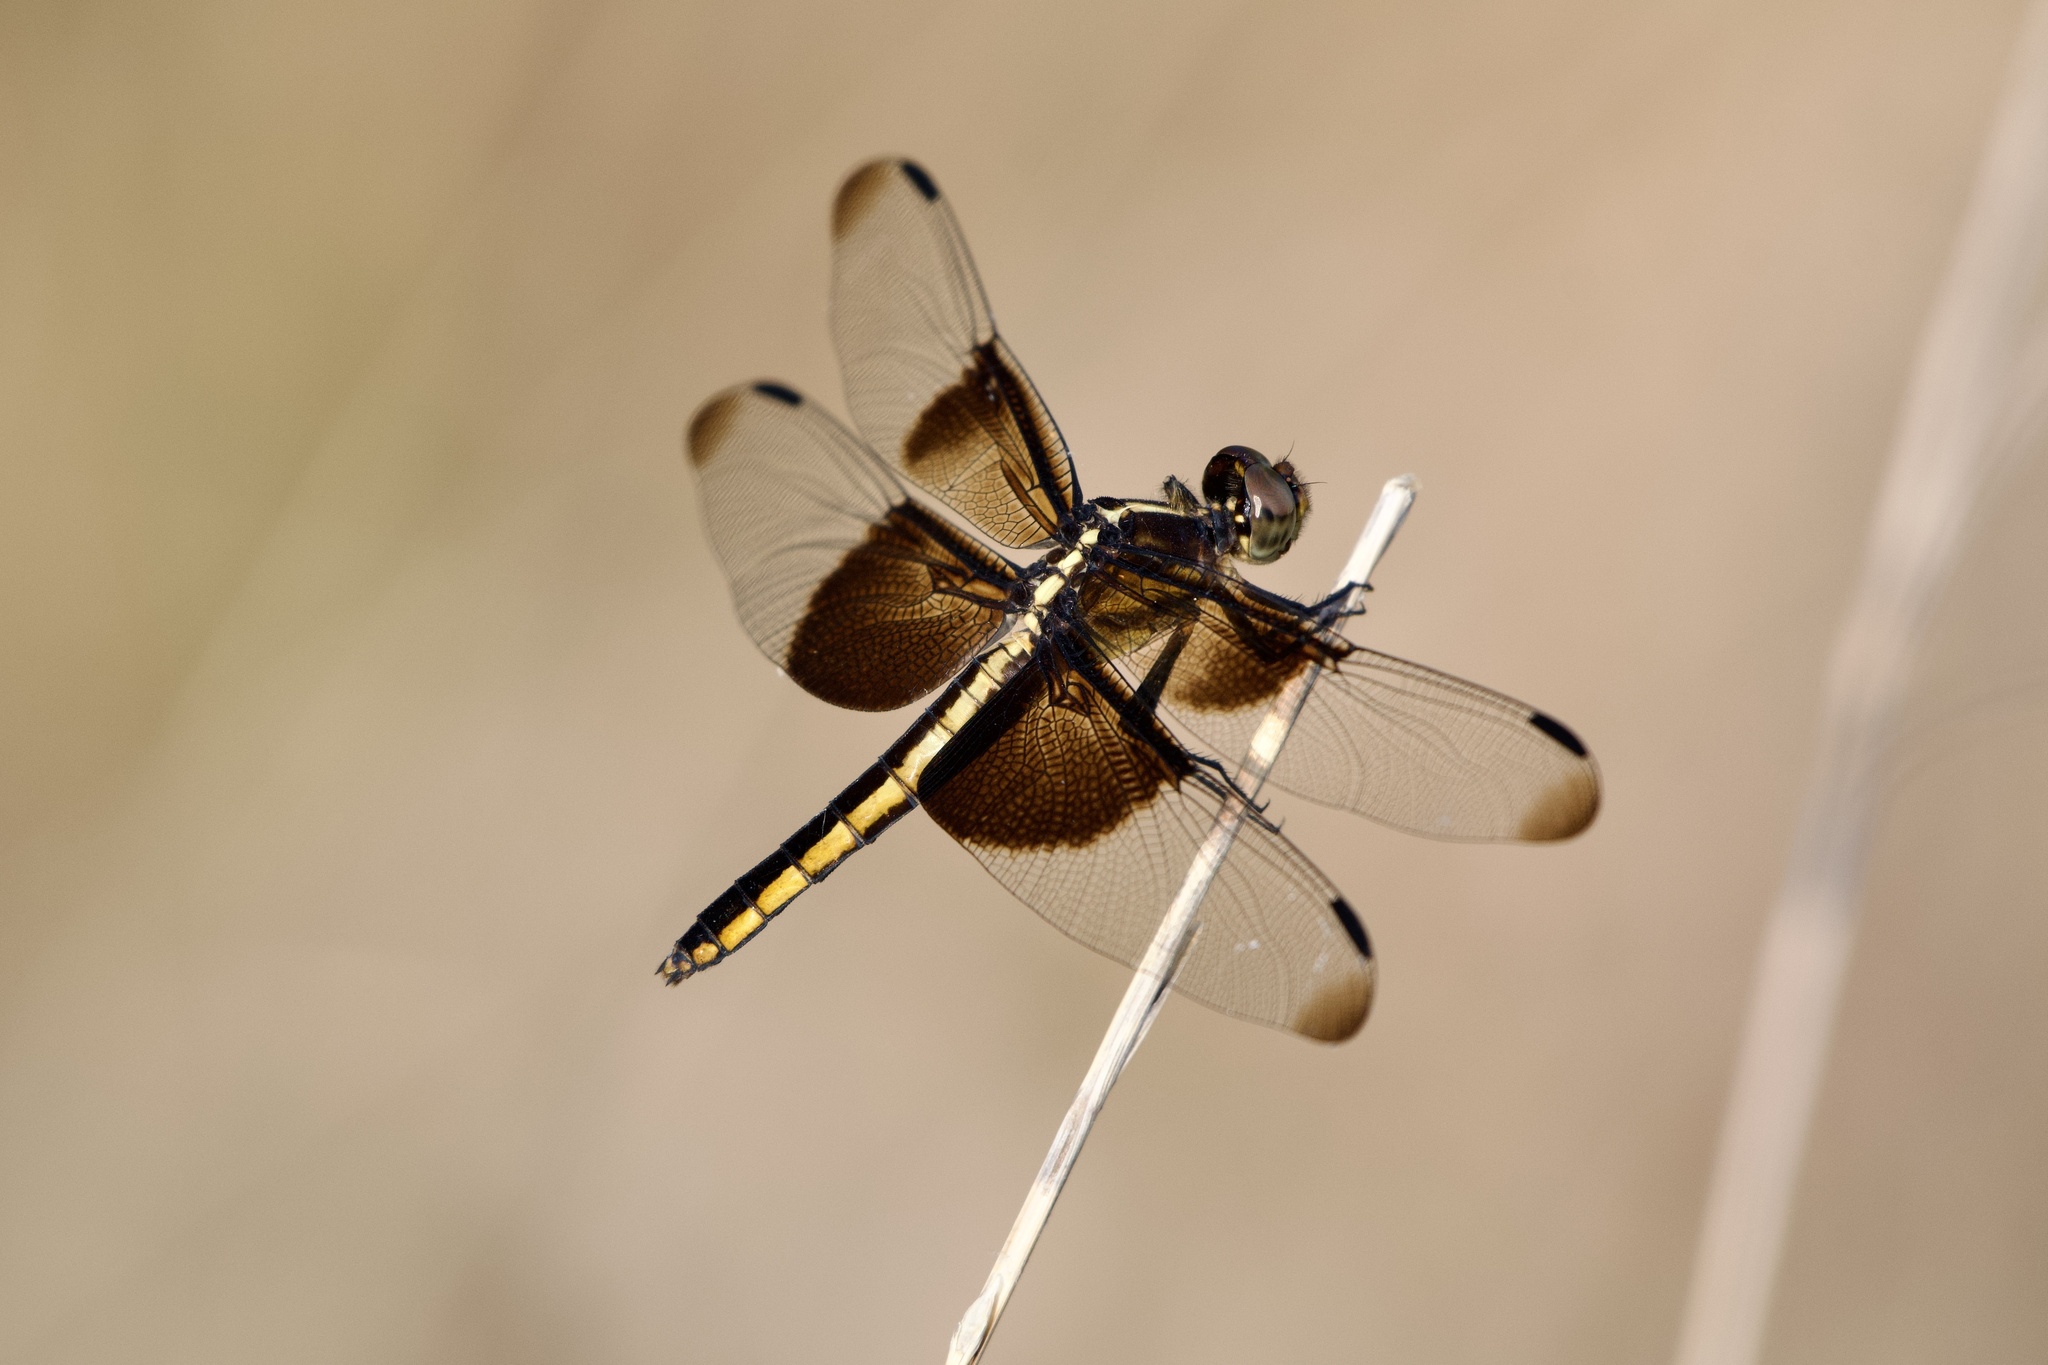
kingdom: Animalia
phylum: Arthropoda
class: Insecta
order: Odonata
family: Libellulidae
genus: Libellula
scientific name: Libellula luctuosa
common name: Widow skimmer
